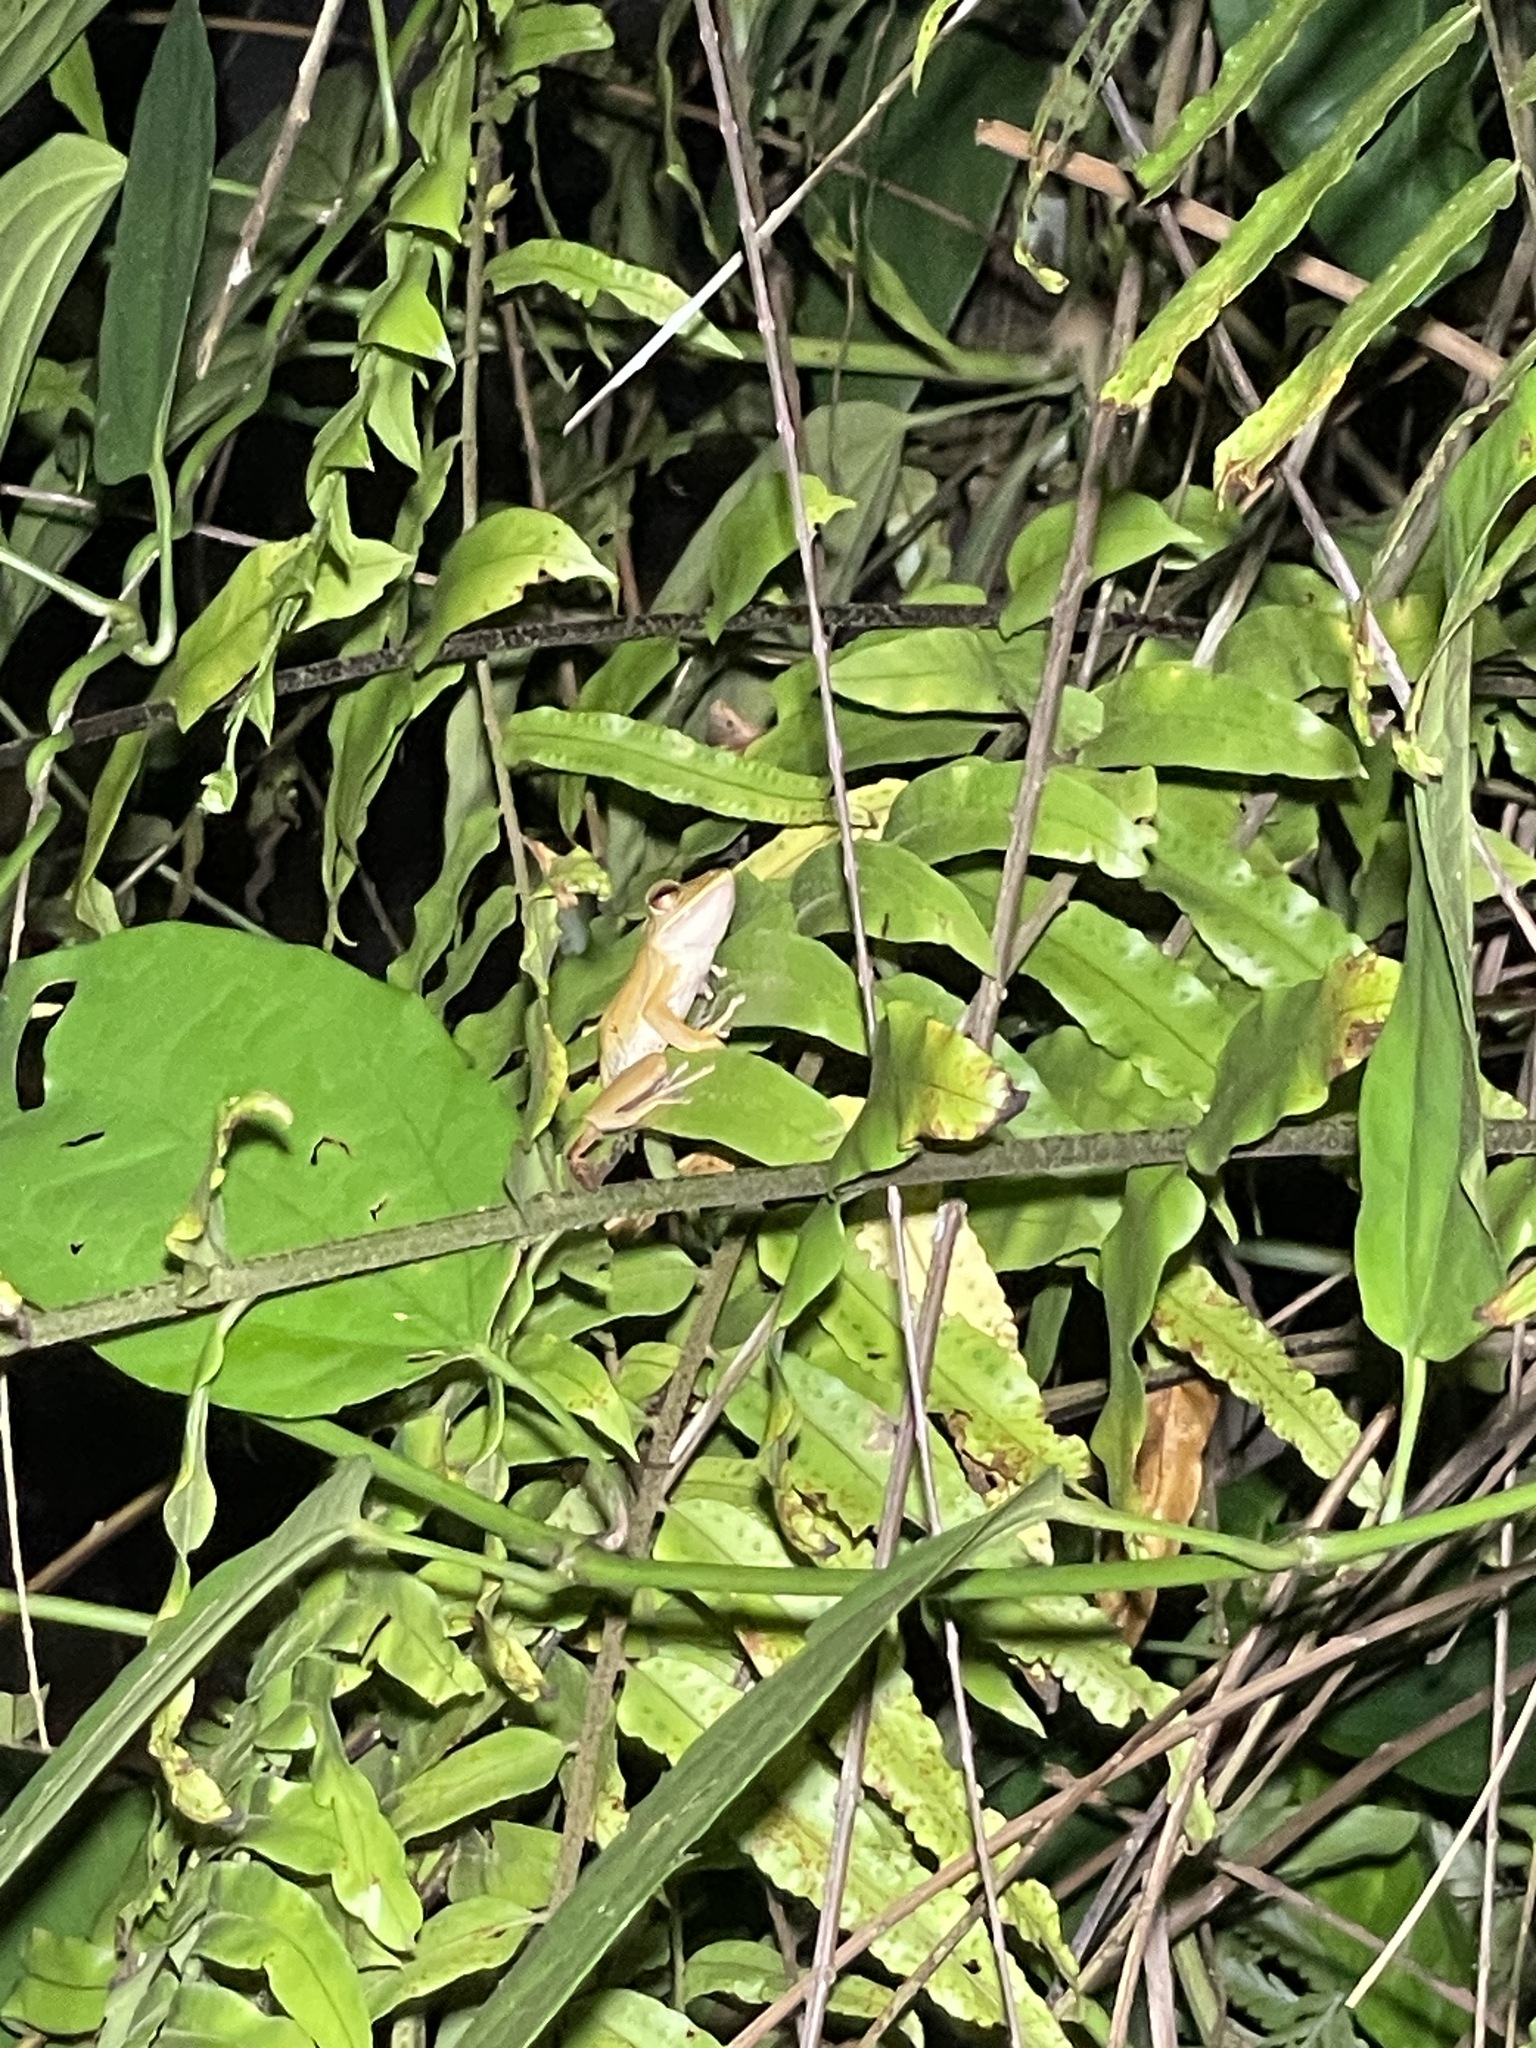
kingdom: Animalia
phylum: Chordata
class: Amphibia
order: Anura
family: Rhacophoridae
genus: Polypedates
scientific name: Polypedates leucomystax
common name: Common tree frog/four-lined tree frog
